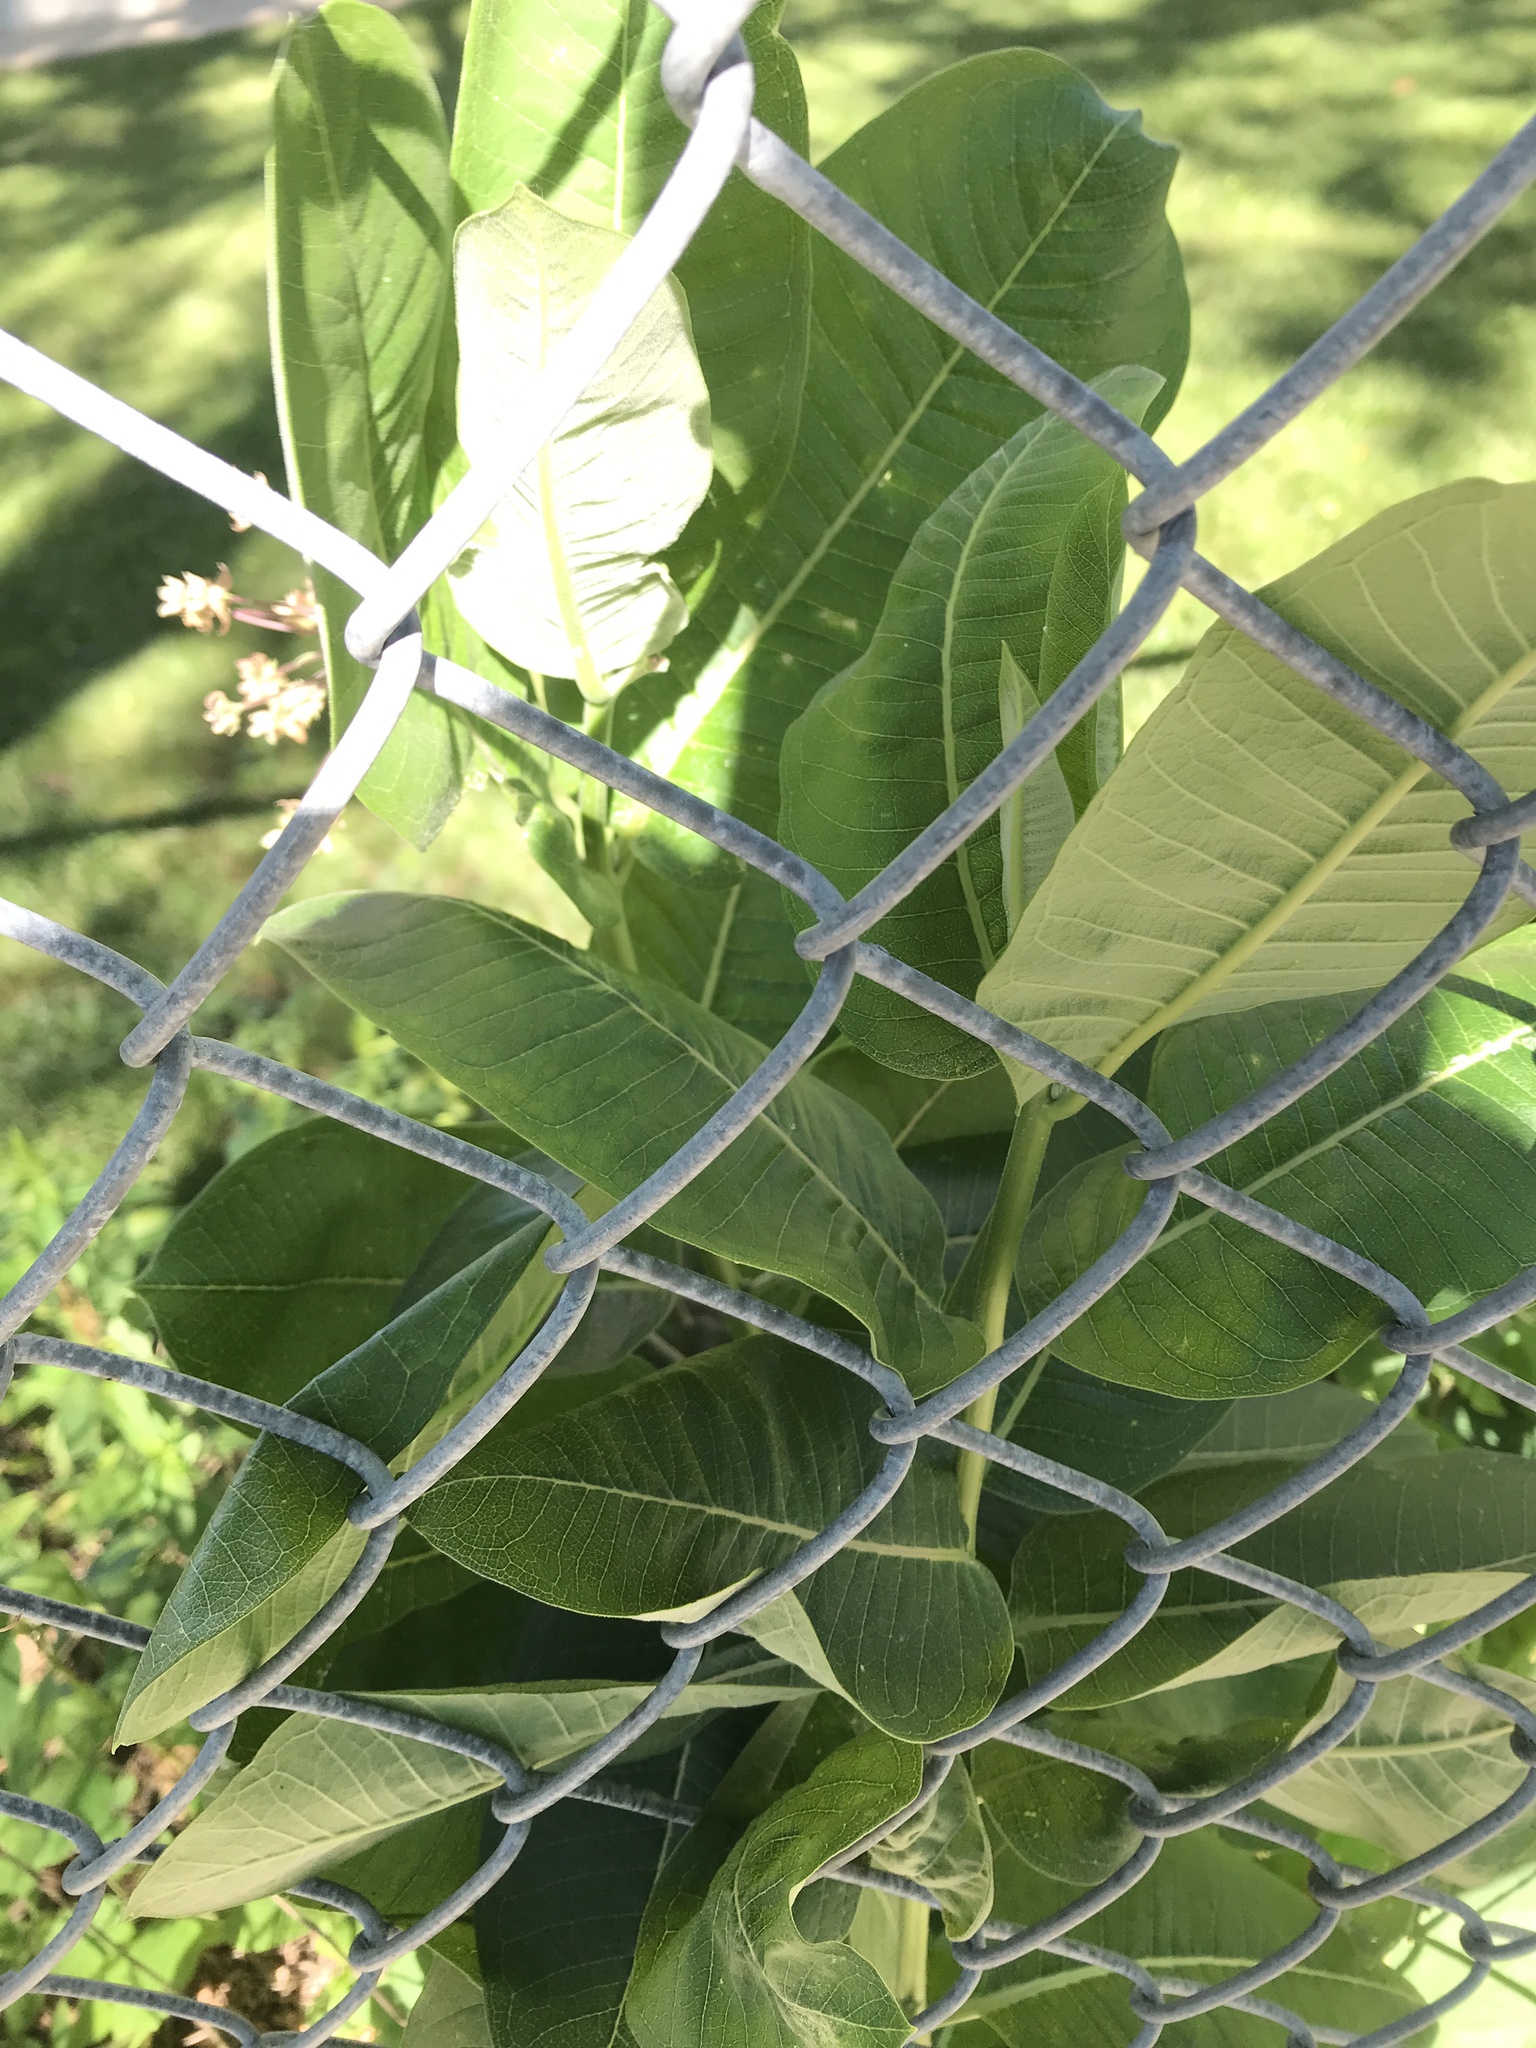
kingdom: Plantae
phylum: Tracheophyta
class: Magnoliopsida
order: Gentianales
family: Apocynaceae
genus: Asclepias
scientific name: Asclepias syriaca
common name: Common milkweed
